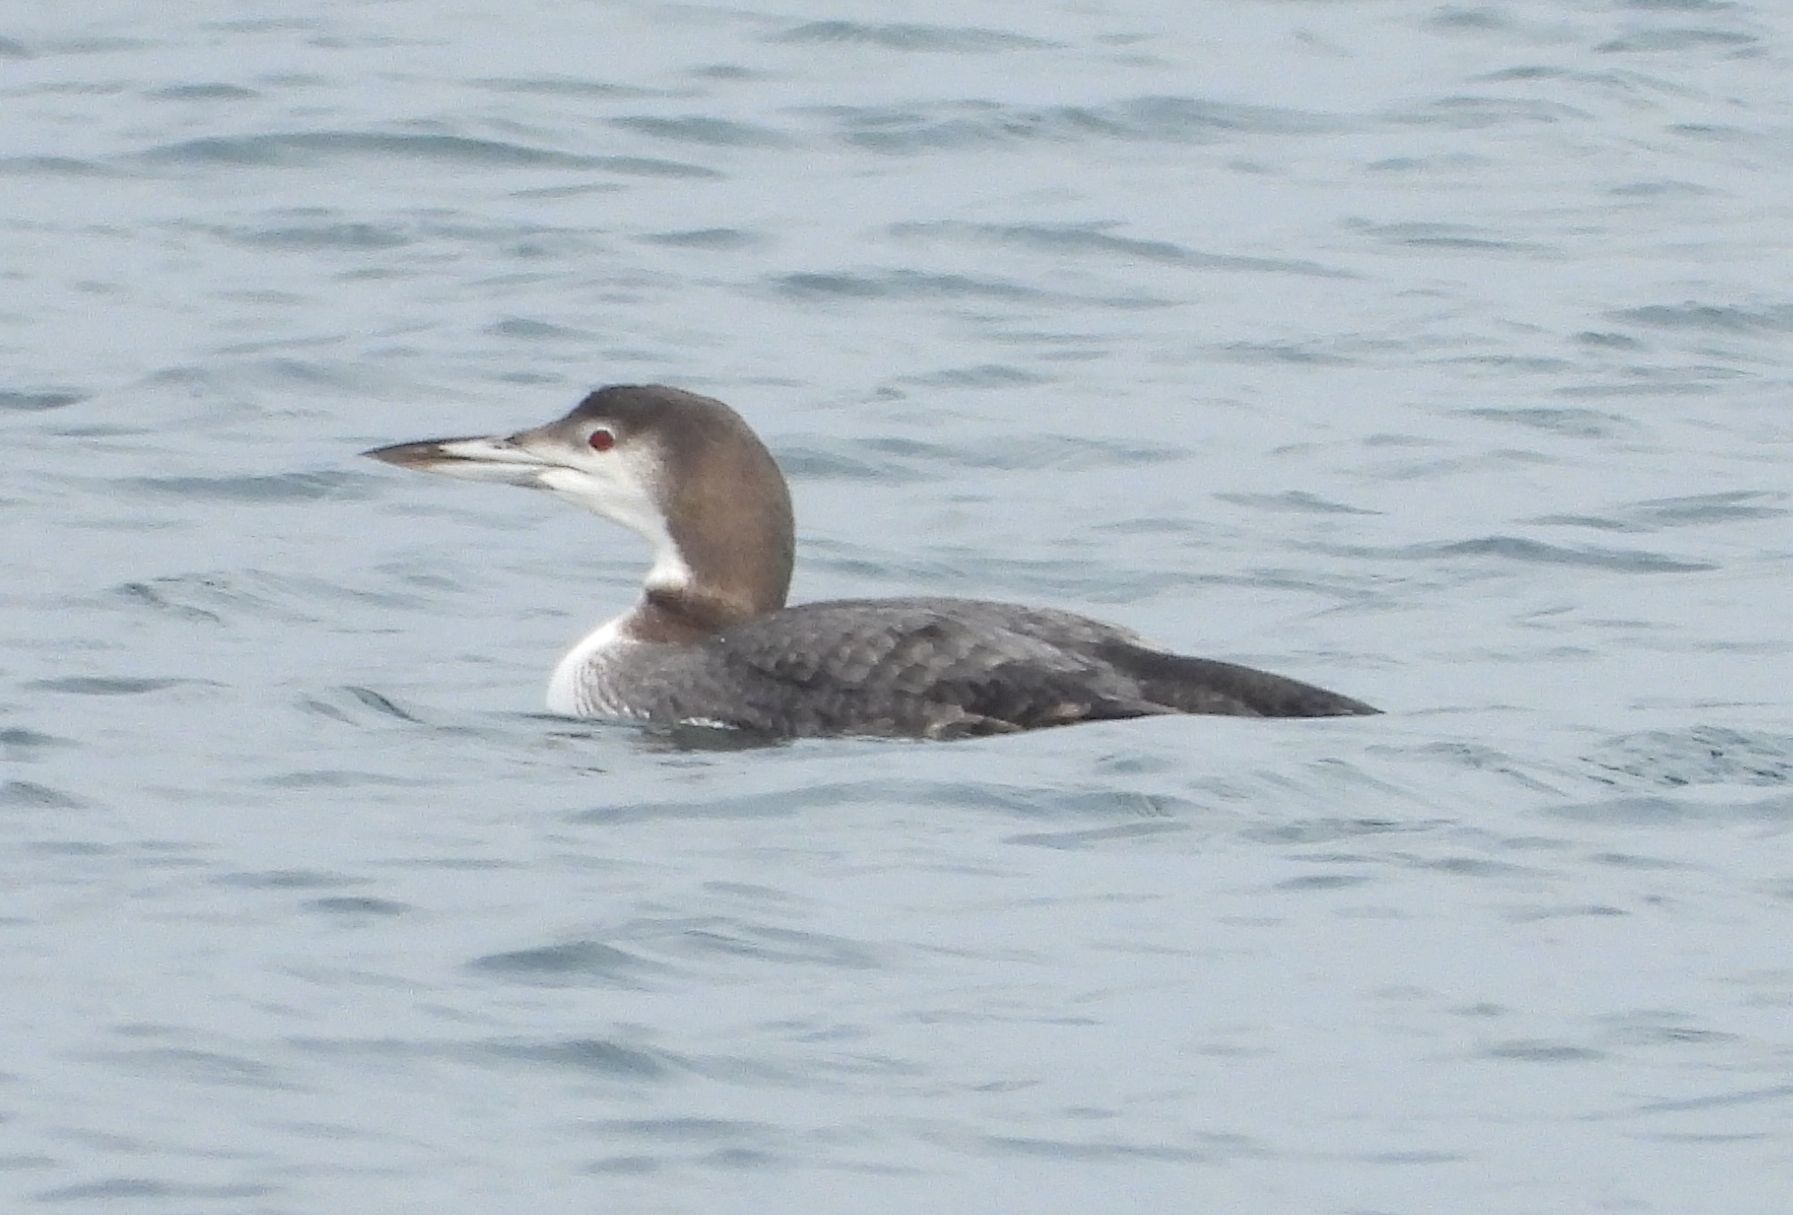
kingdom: Animalia
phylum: Chordata
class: Aves
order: Gaviiformes
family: Gaviidae
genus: Gavia
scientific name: Gavia immer
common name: Common loon
